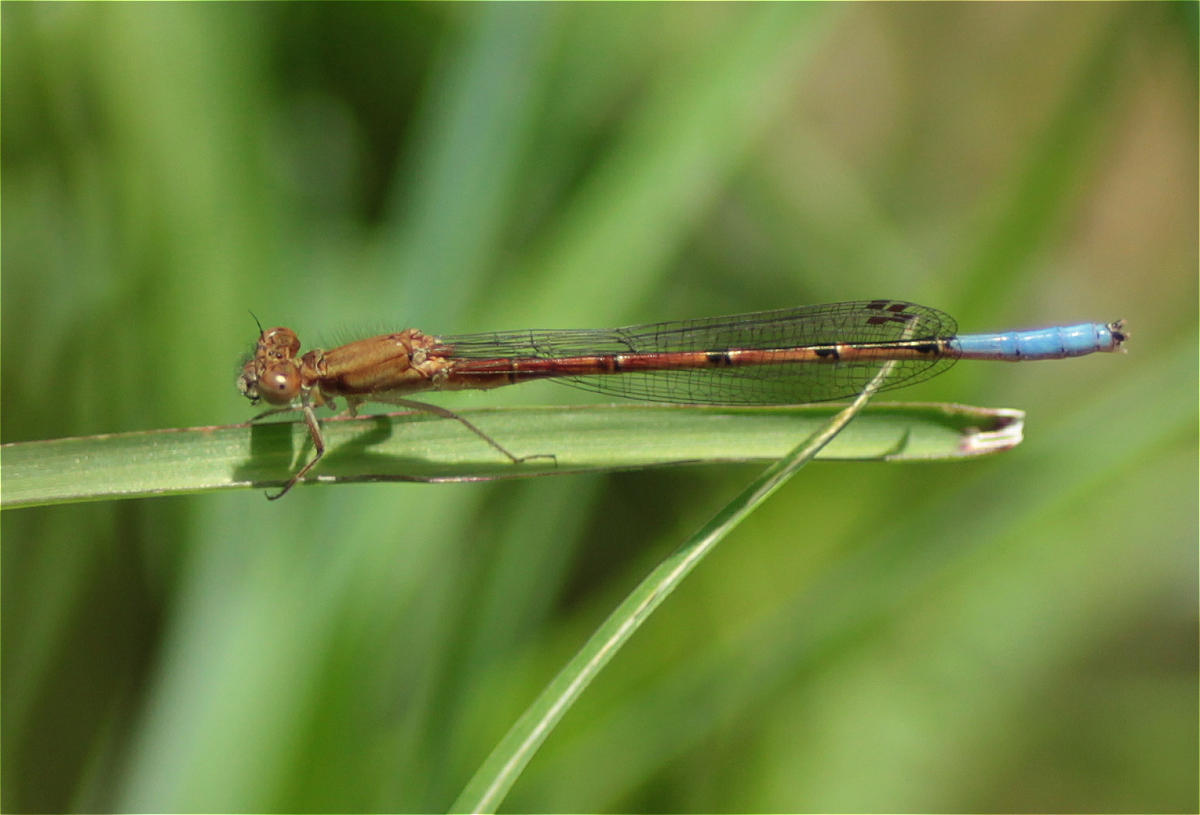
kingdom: Animalia
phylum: Arthropoda
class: Insecta
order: Odonata
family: Coenagrionidae
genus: Oxyallagma
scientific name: Oxyallagma dissidens
